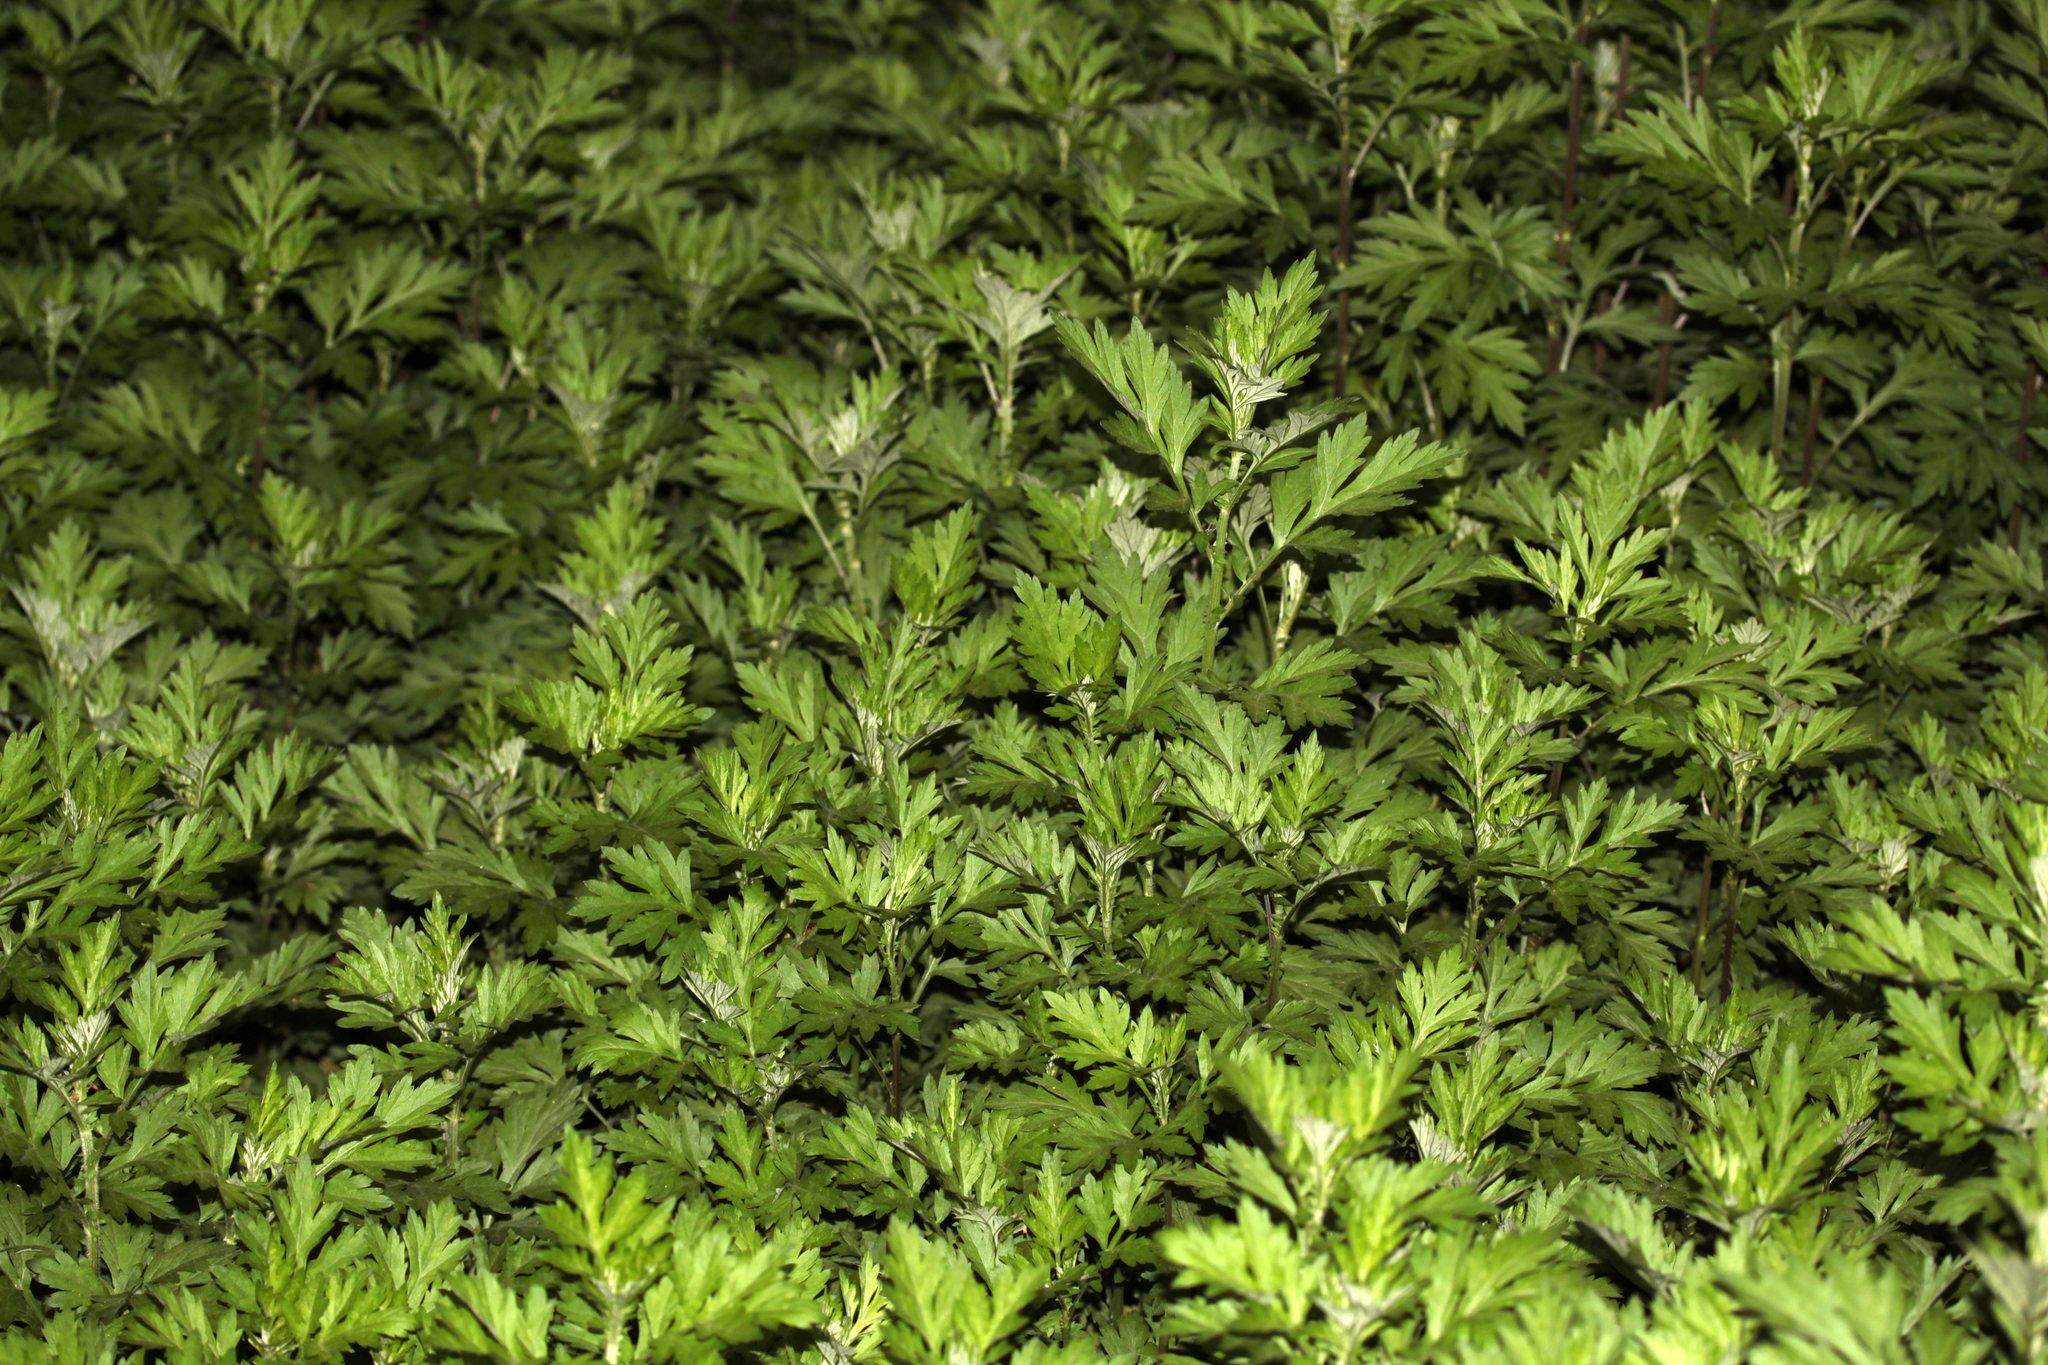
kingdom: Plantae
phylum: Tracheophyta
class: Magnoliopsida
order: Asterales
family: Asteraceae
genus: Artemisia
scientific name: Artemisia vulgaris
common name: Mugwort
